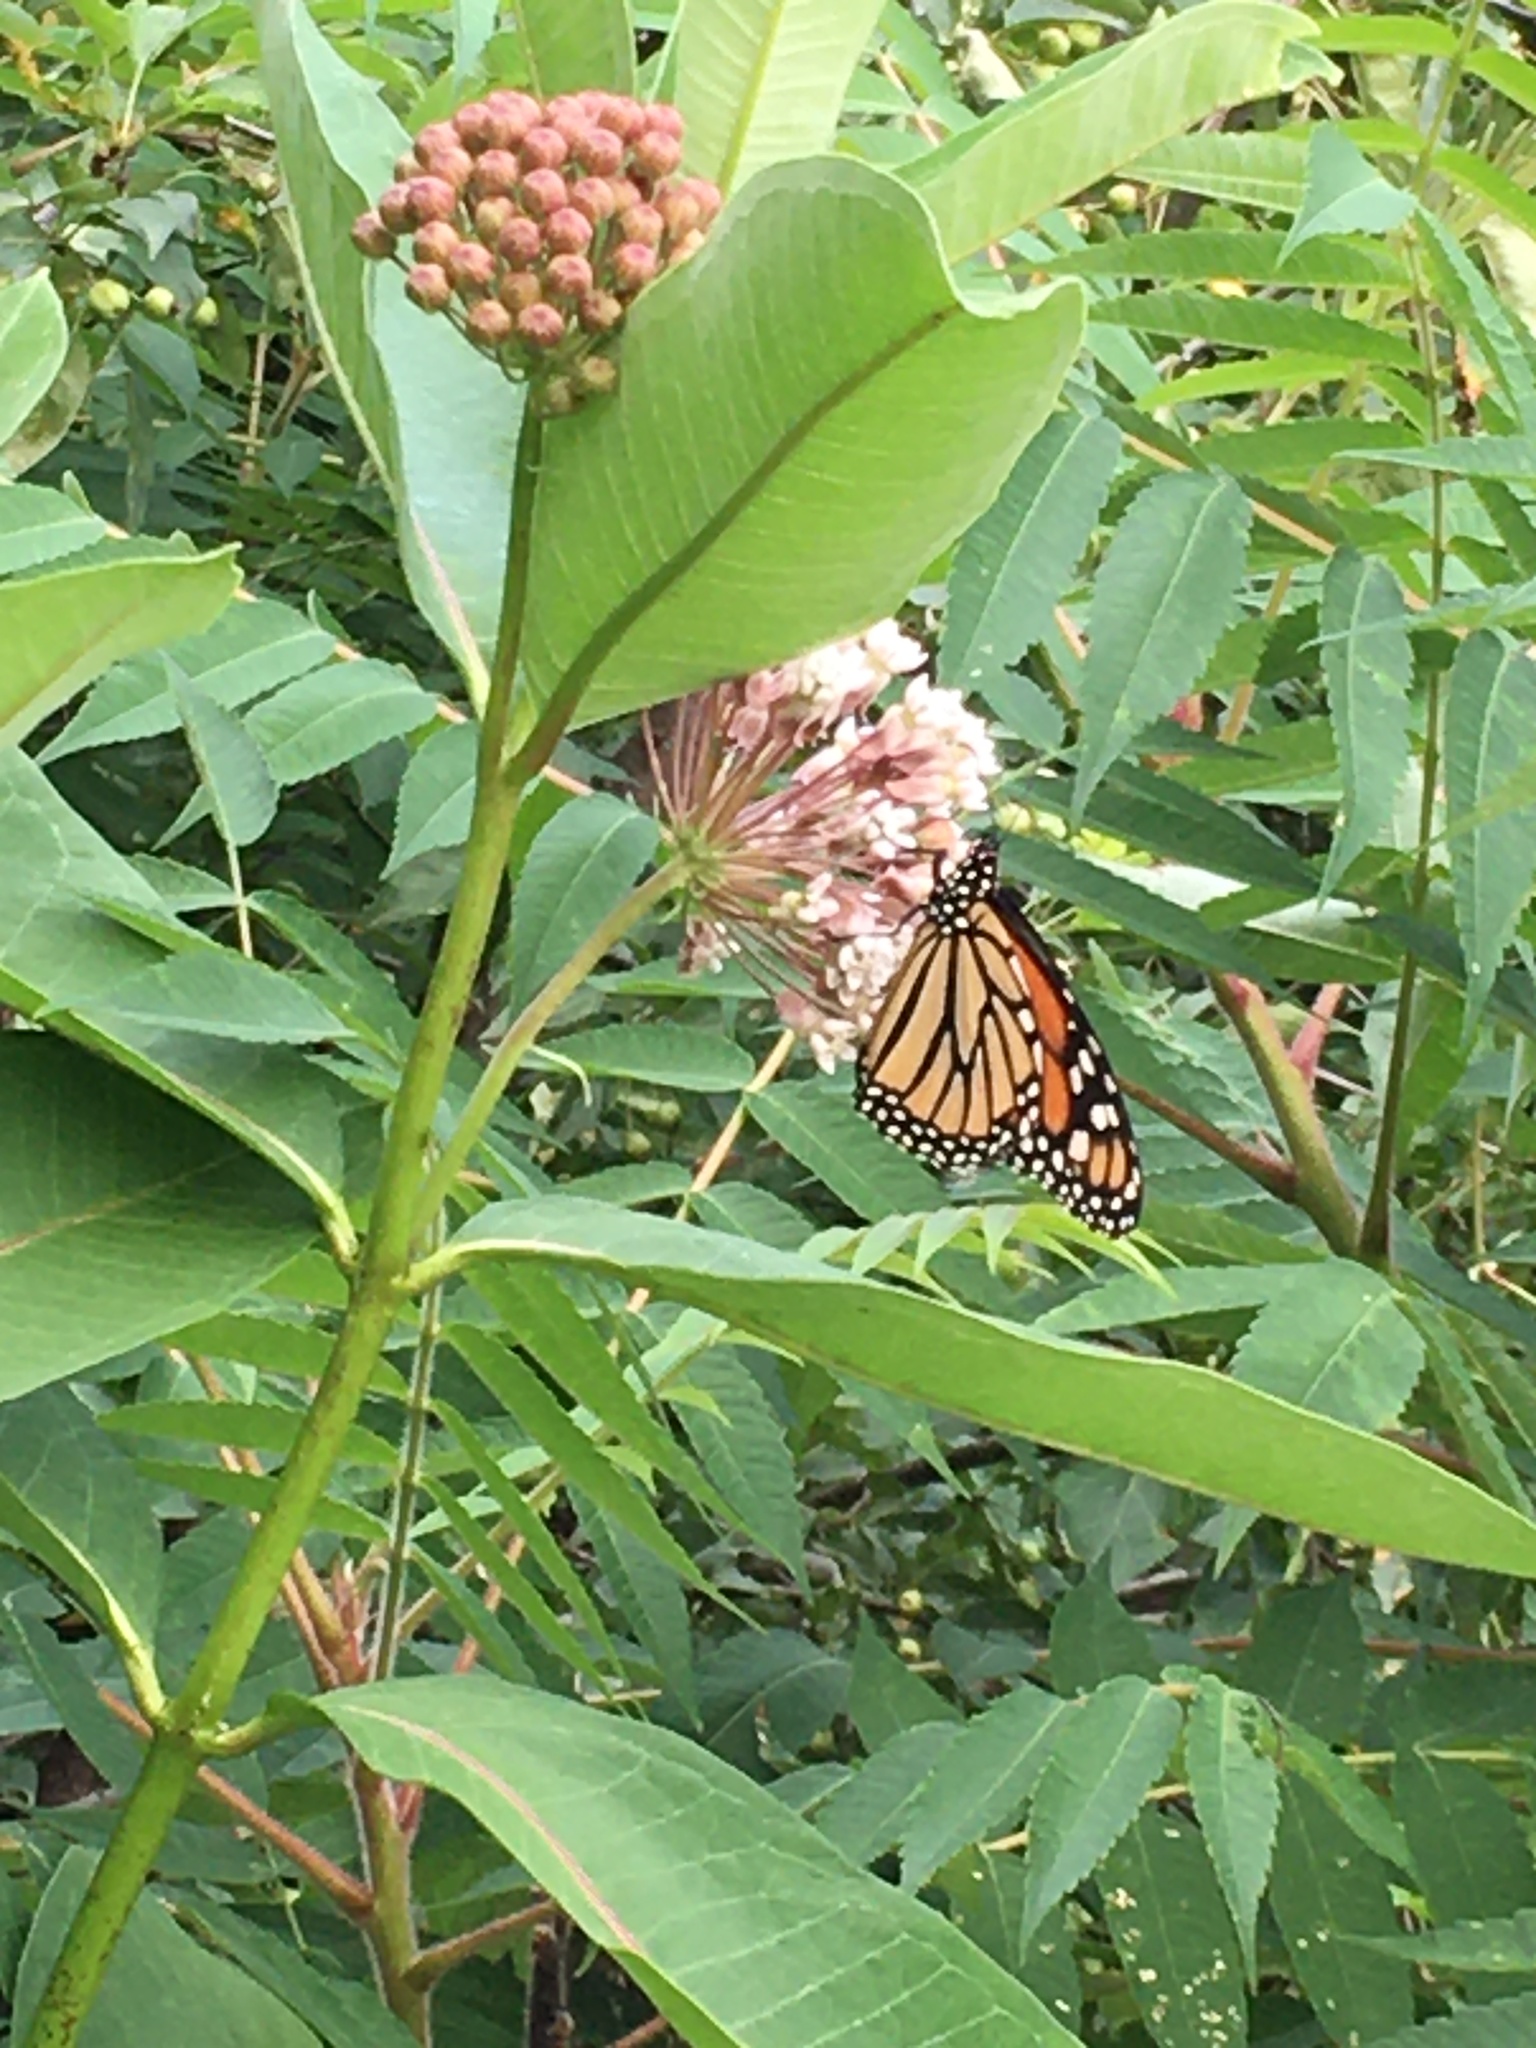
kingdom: Animalia
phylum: Arthropoda
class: Insecta
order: Lepidoptera
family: Nymphalidae
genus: Danaus
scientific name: Danaus plexippus
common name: Monarch
